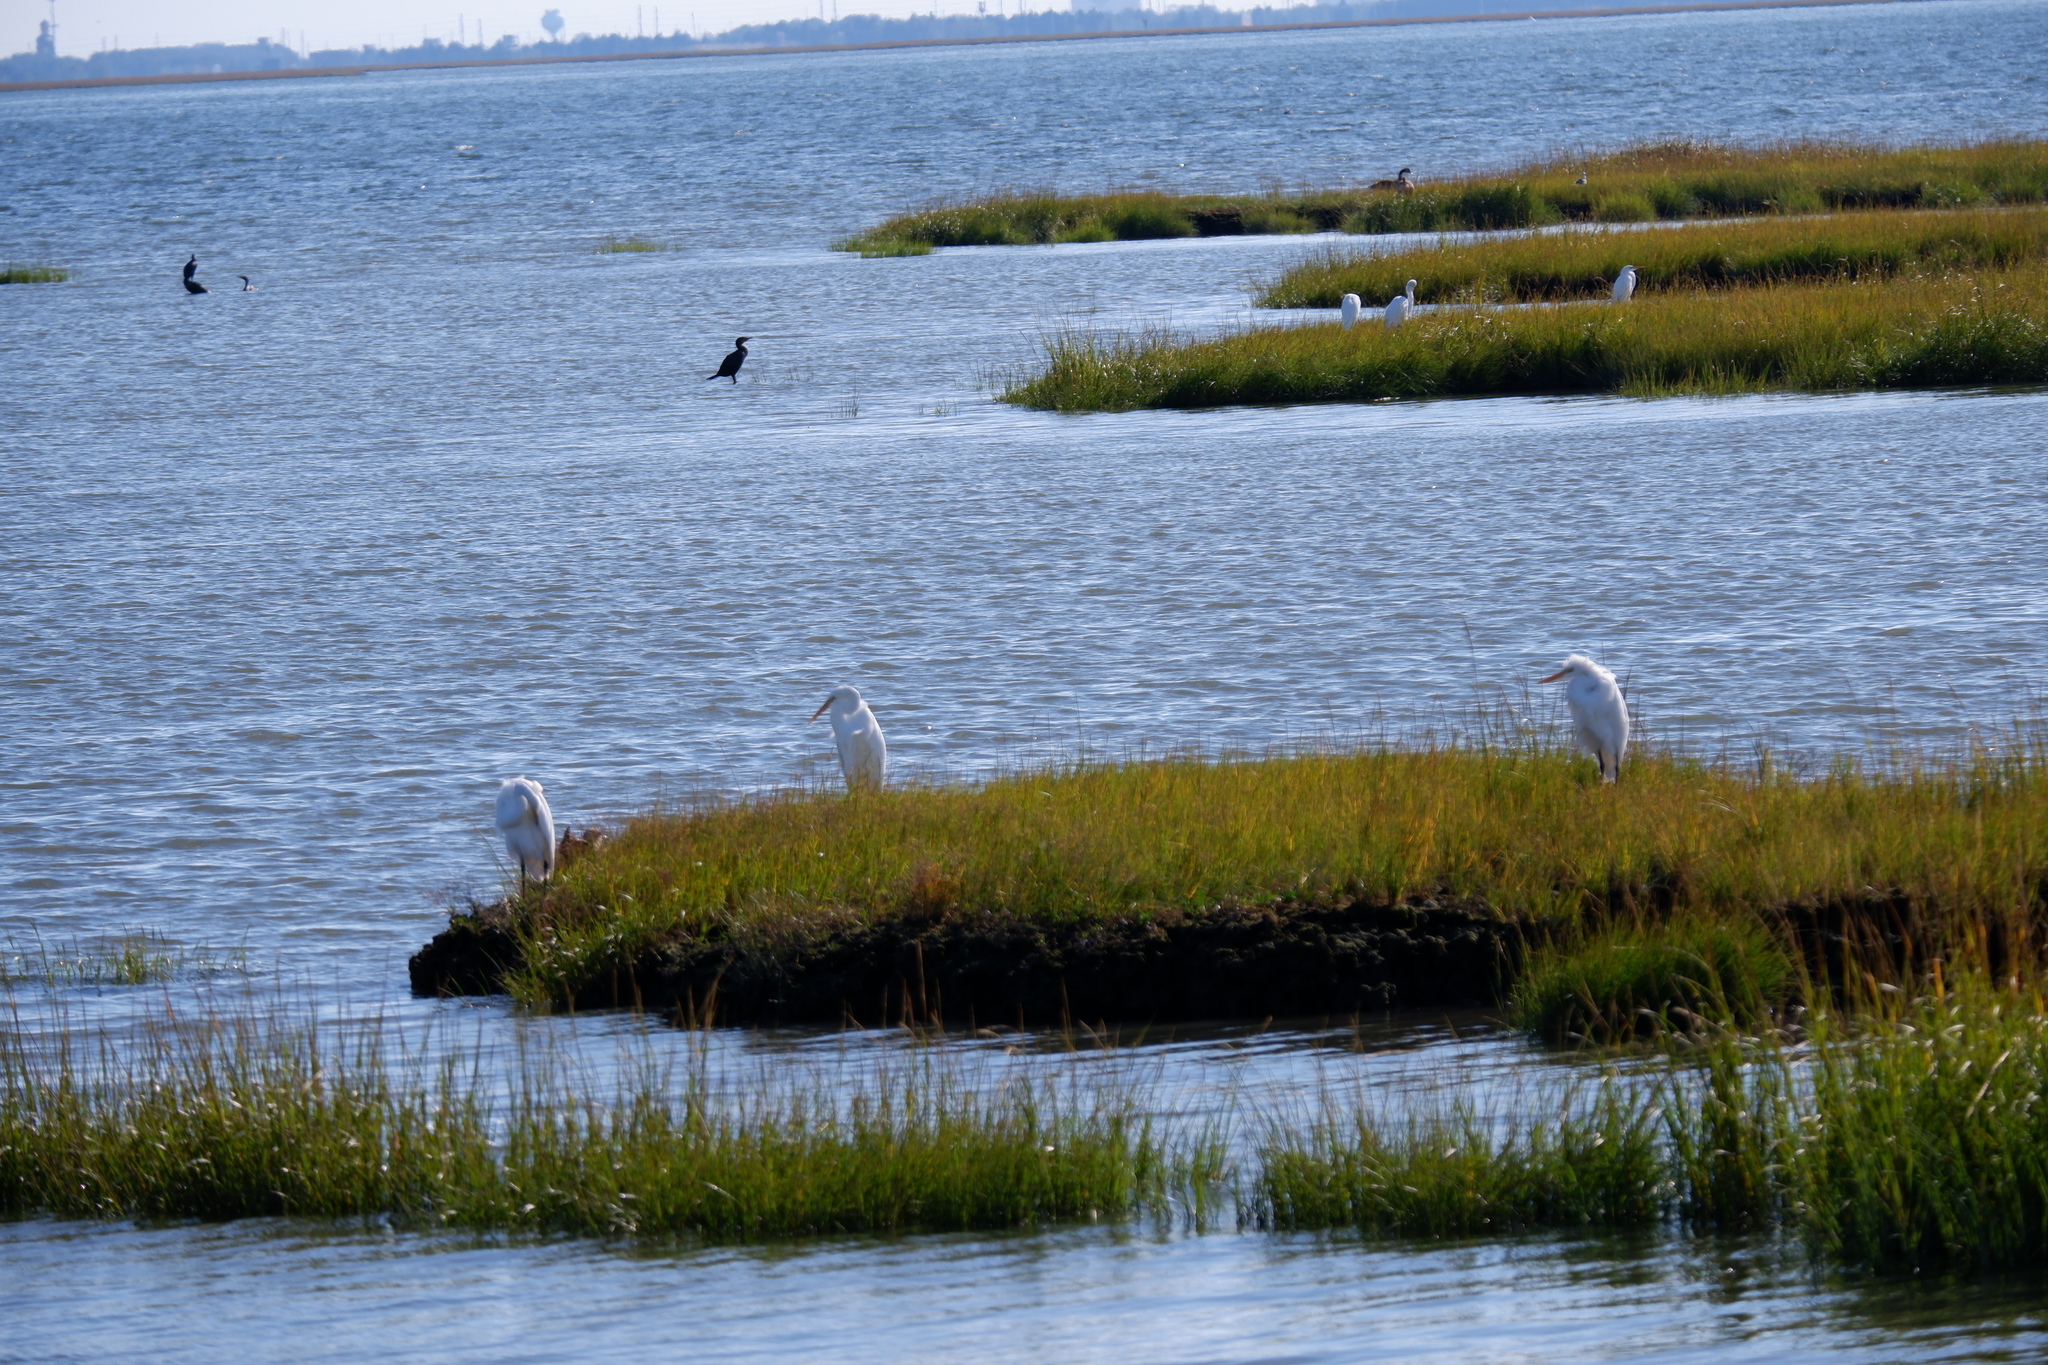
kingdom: Animalia
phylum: Chordata
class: Aves
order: Suliformes
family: Phalacrocoracidae
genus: Phalacrocorax
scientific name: Phalacrocorax auritus
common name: Double-crested cormorant
